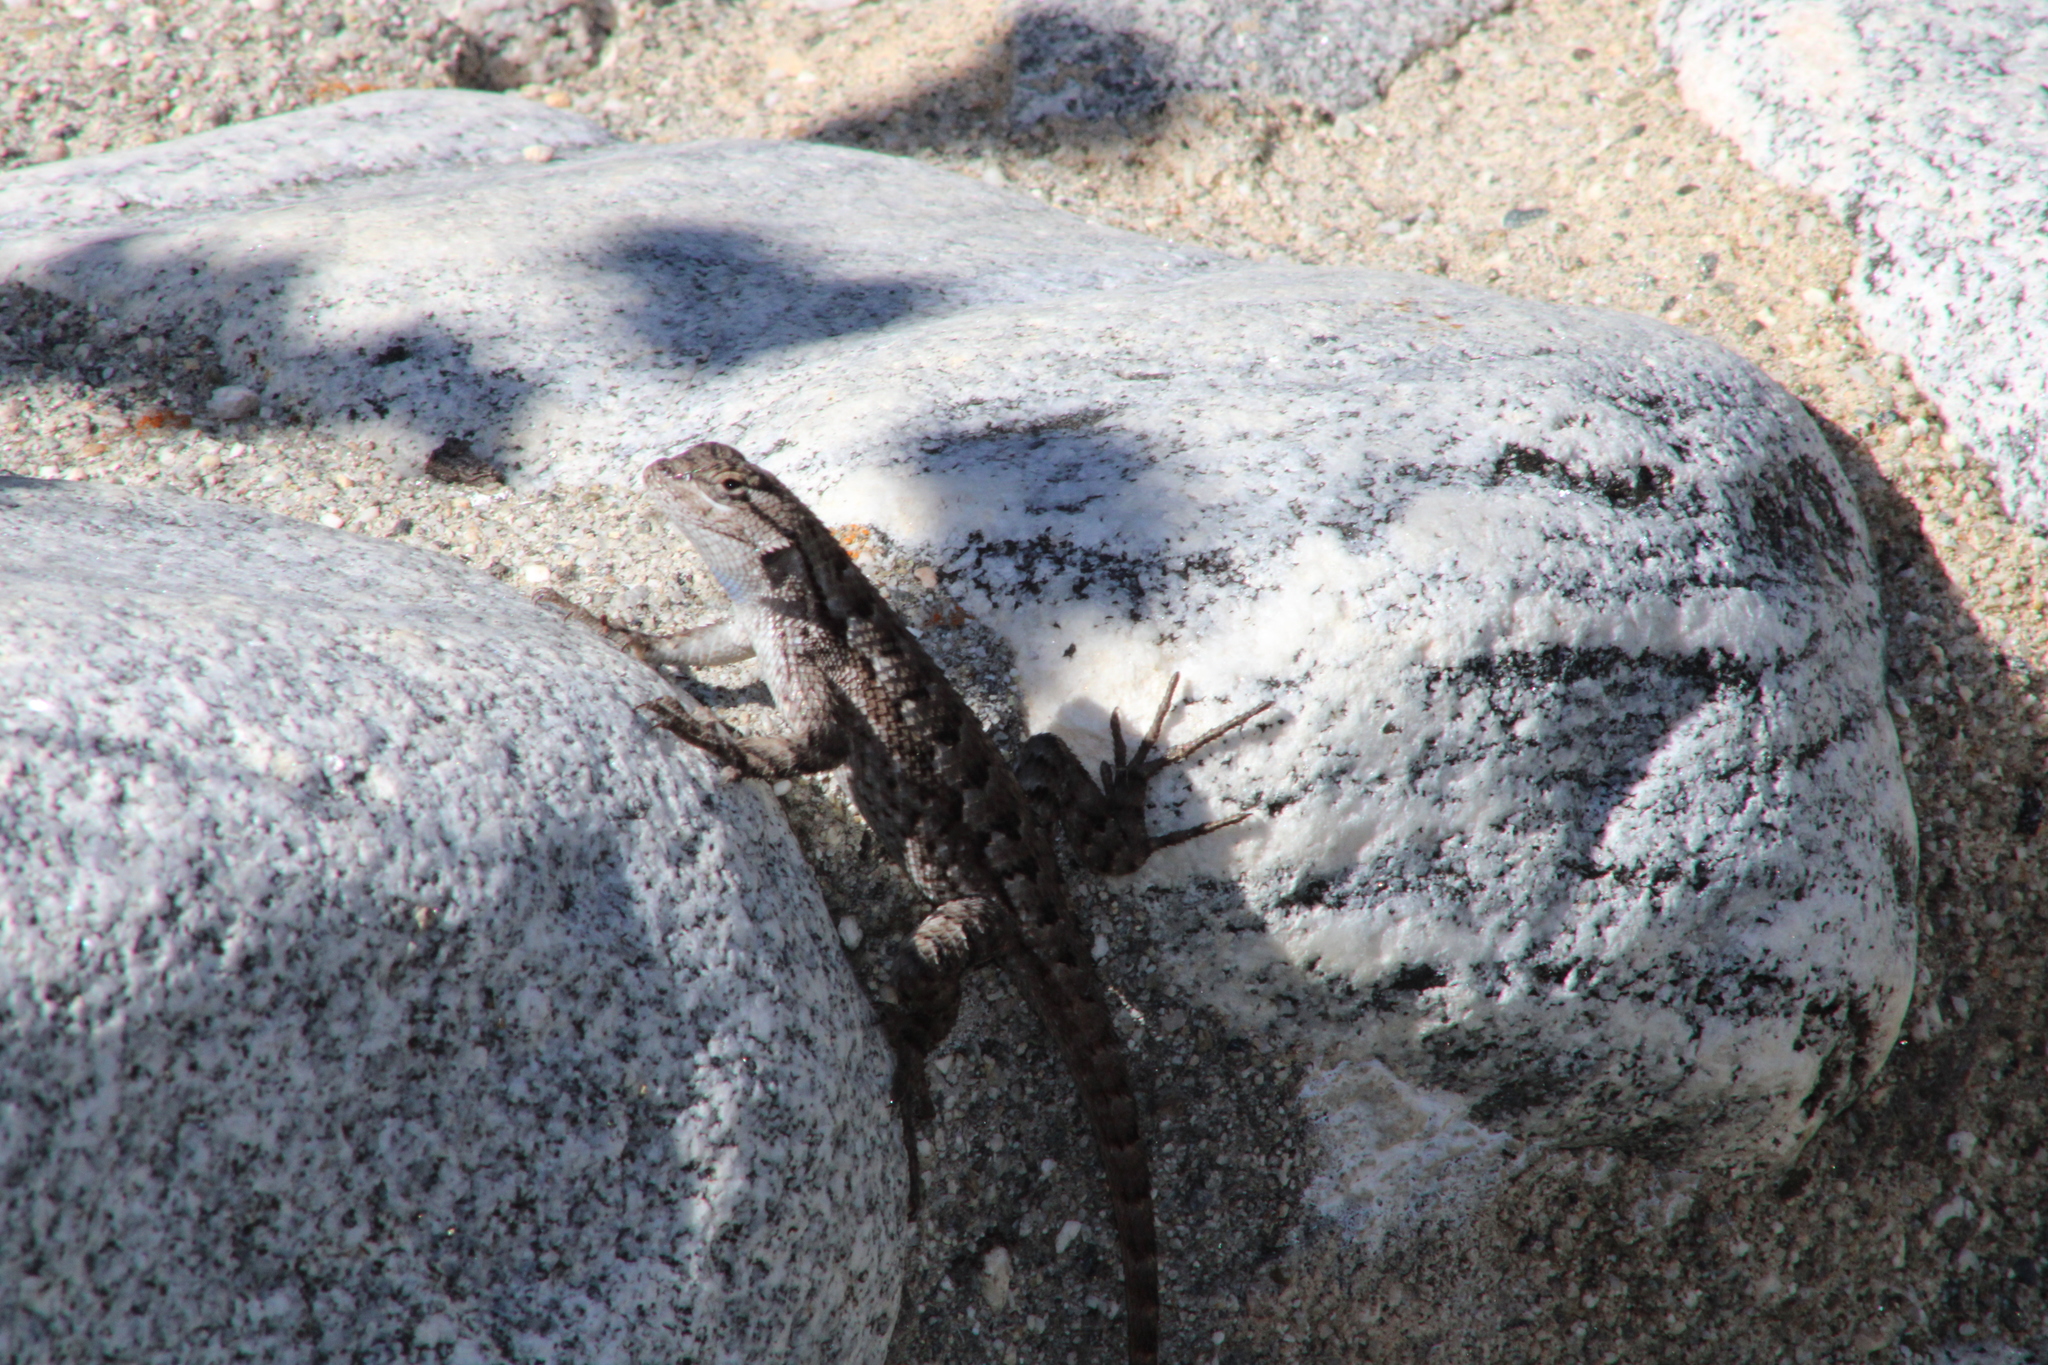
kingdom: Animalia
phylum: Chordata
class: Squamata
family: Phrynosomatidae
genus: Sceloporus
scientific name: Sceloporus occidentalis
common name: Western fence lizard
